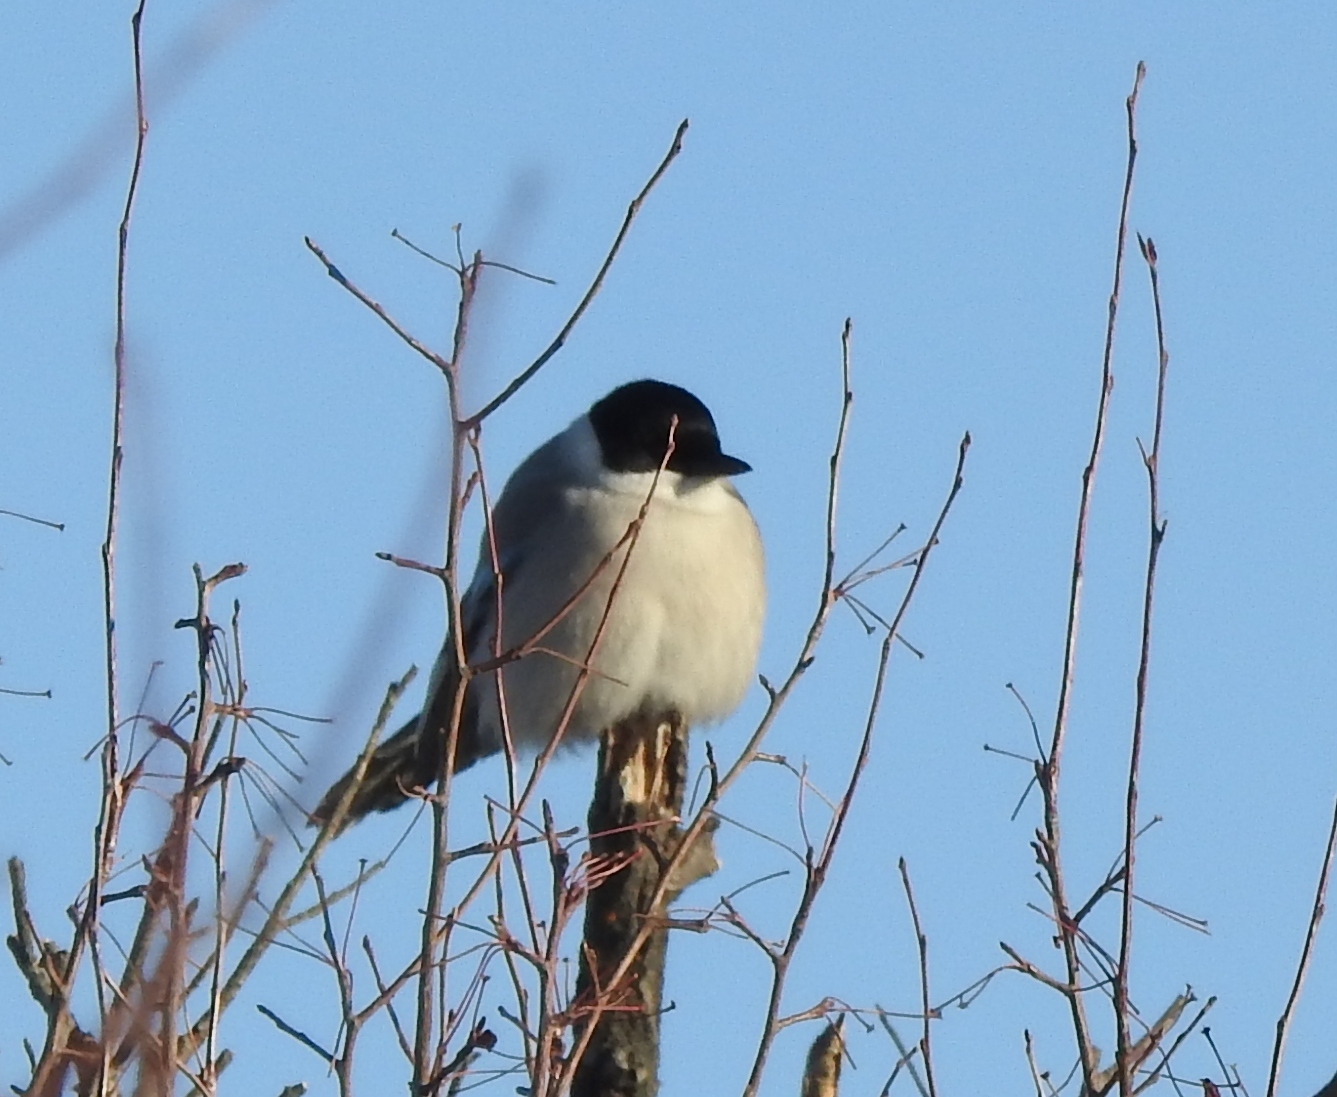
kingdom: Animalia
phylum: Chordata
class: Aves
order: Passeriformes
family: Corvidae
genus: Cyanopica
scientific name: Cyanopica cyanus
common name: Azure-winged magpie
